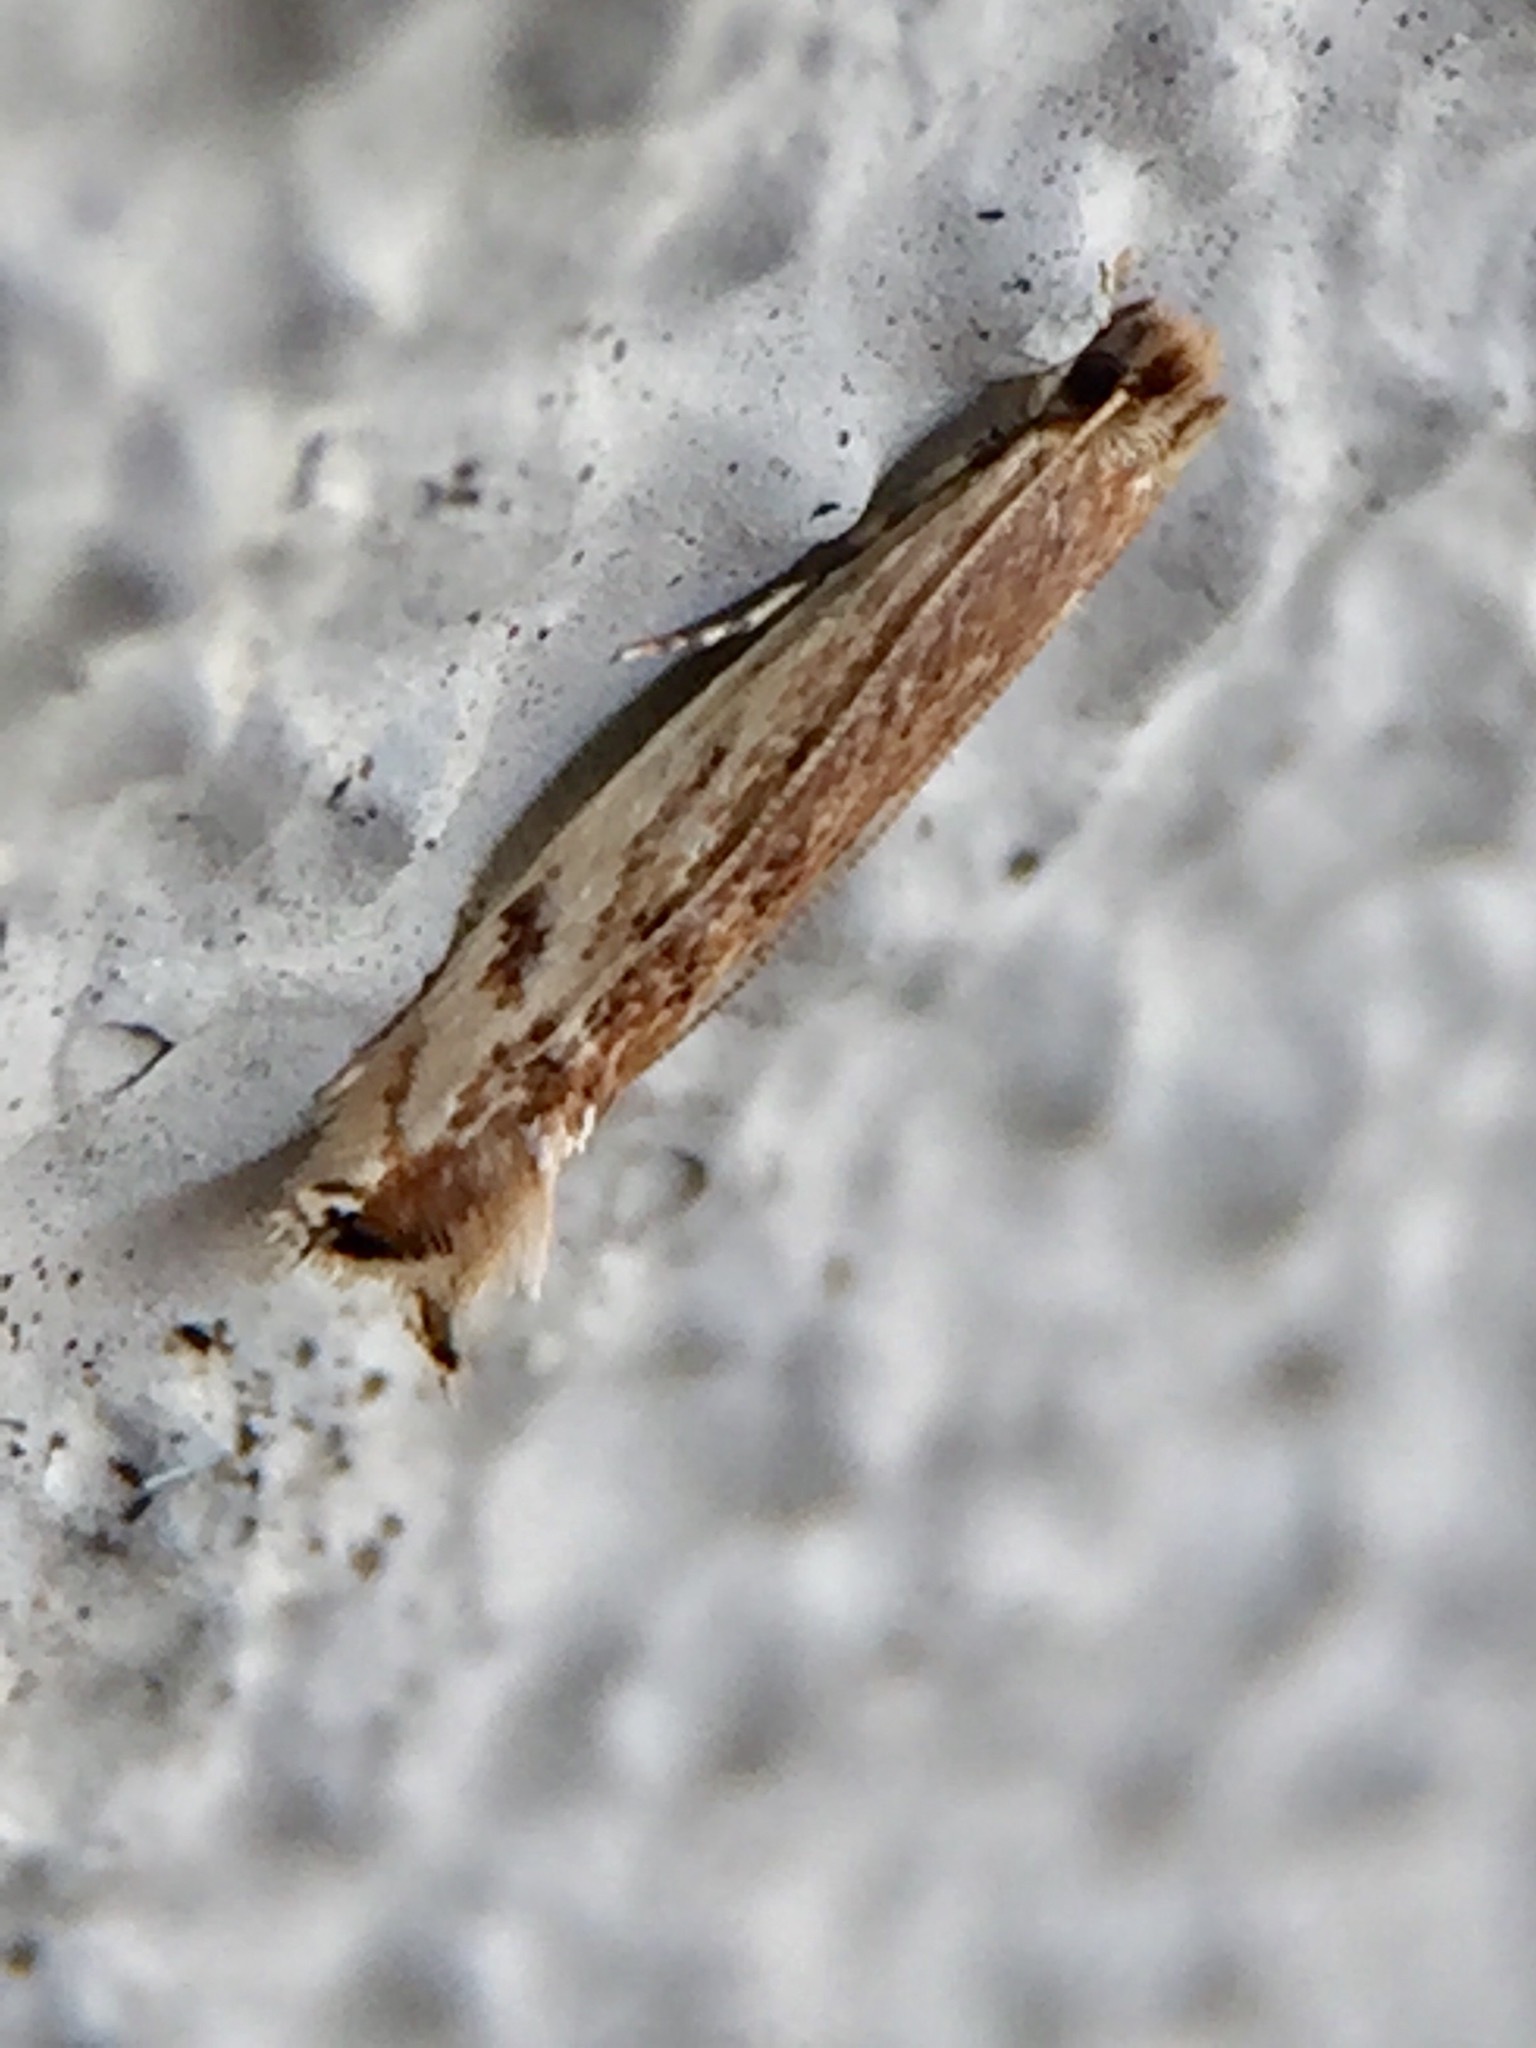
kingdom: Animalia
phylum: Arthropoda
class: Insecta
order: Lepidoptera
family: Tineidae
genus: Erechthias
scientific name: Erechthias exospila
